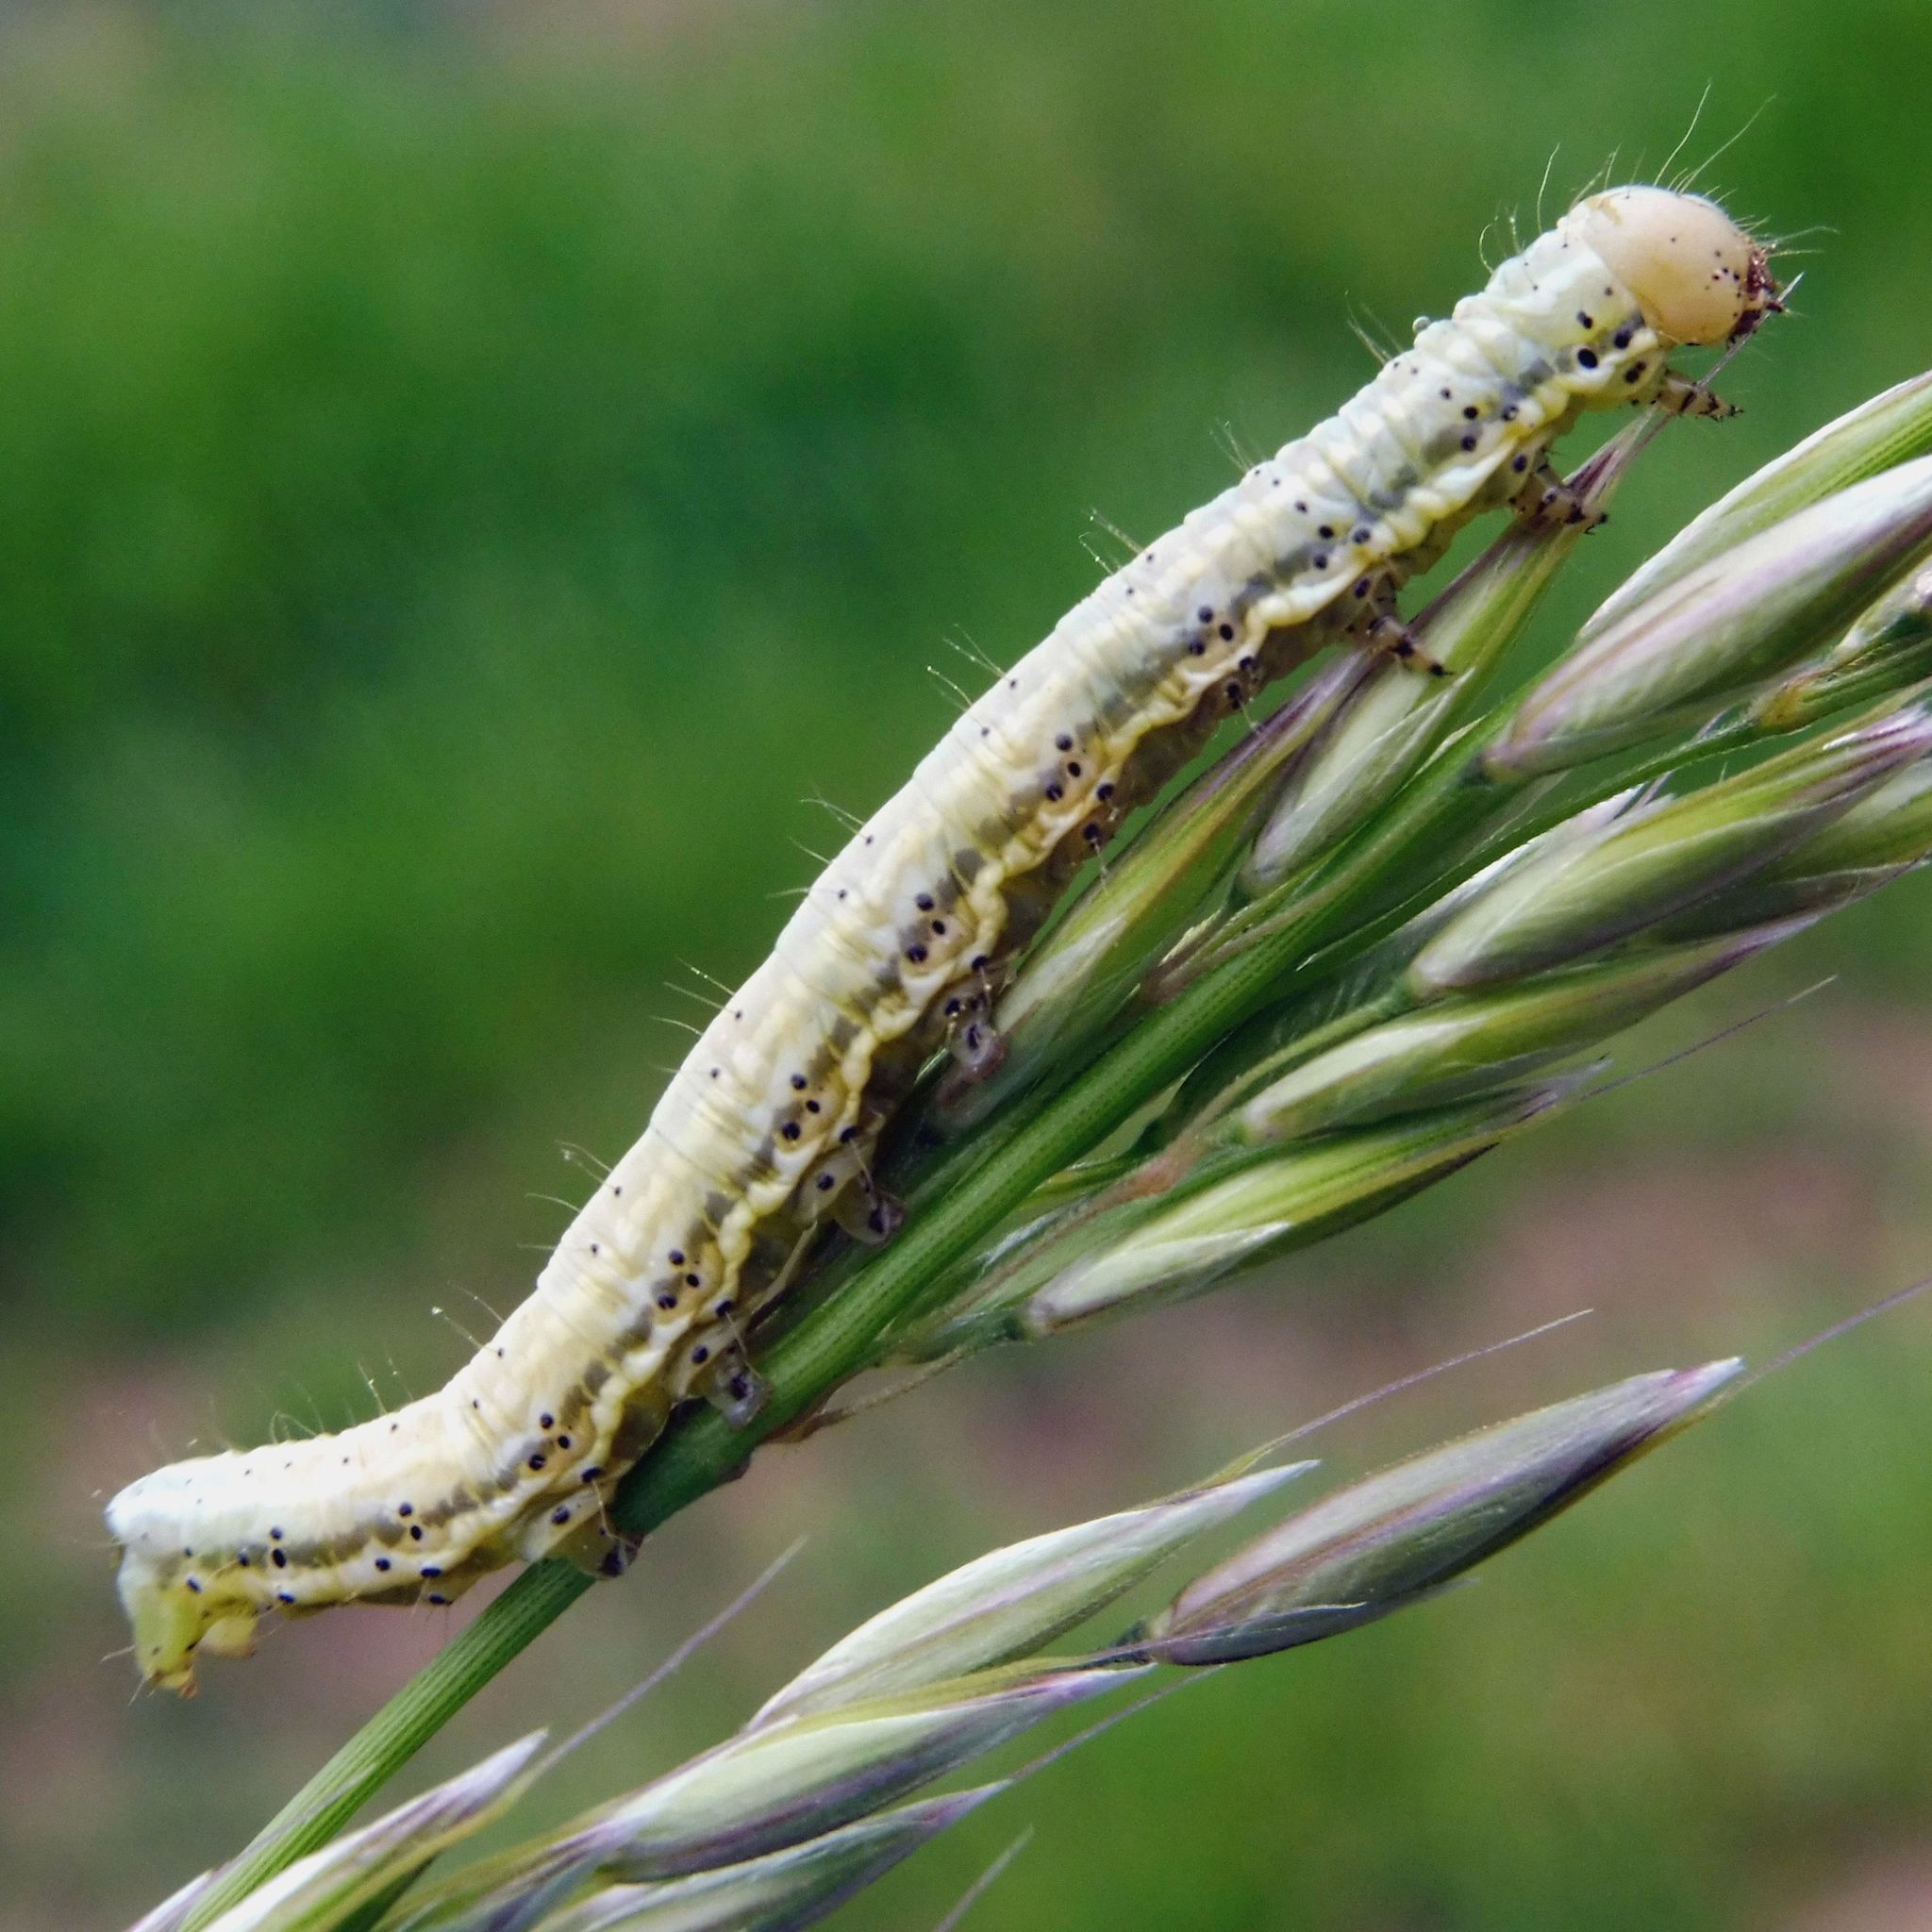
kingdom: Animalia
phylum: Arthropoda
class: Insecta
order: Lepidoptera
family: Noctuidae
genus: Eremobia
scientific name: Eremobia ochroleuca
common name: Dusky sallow
